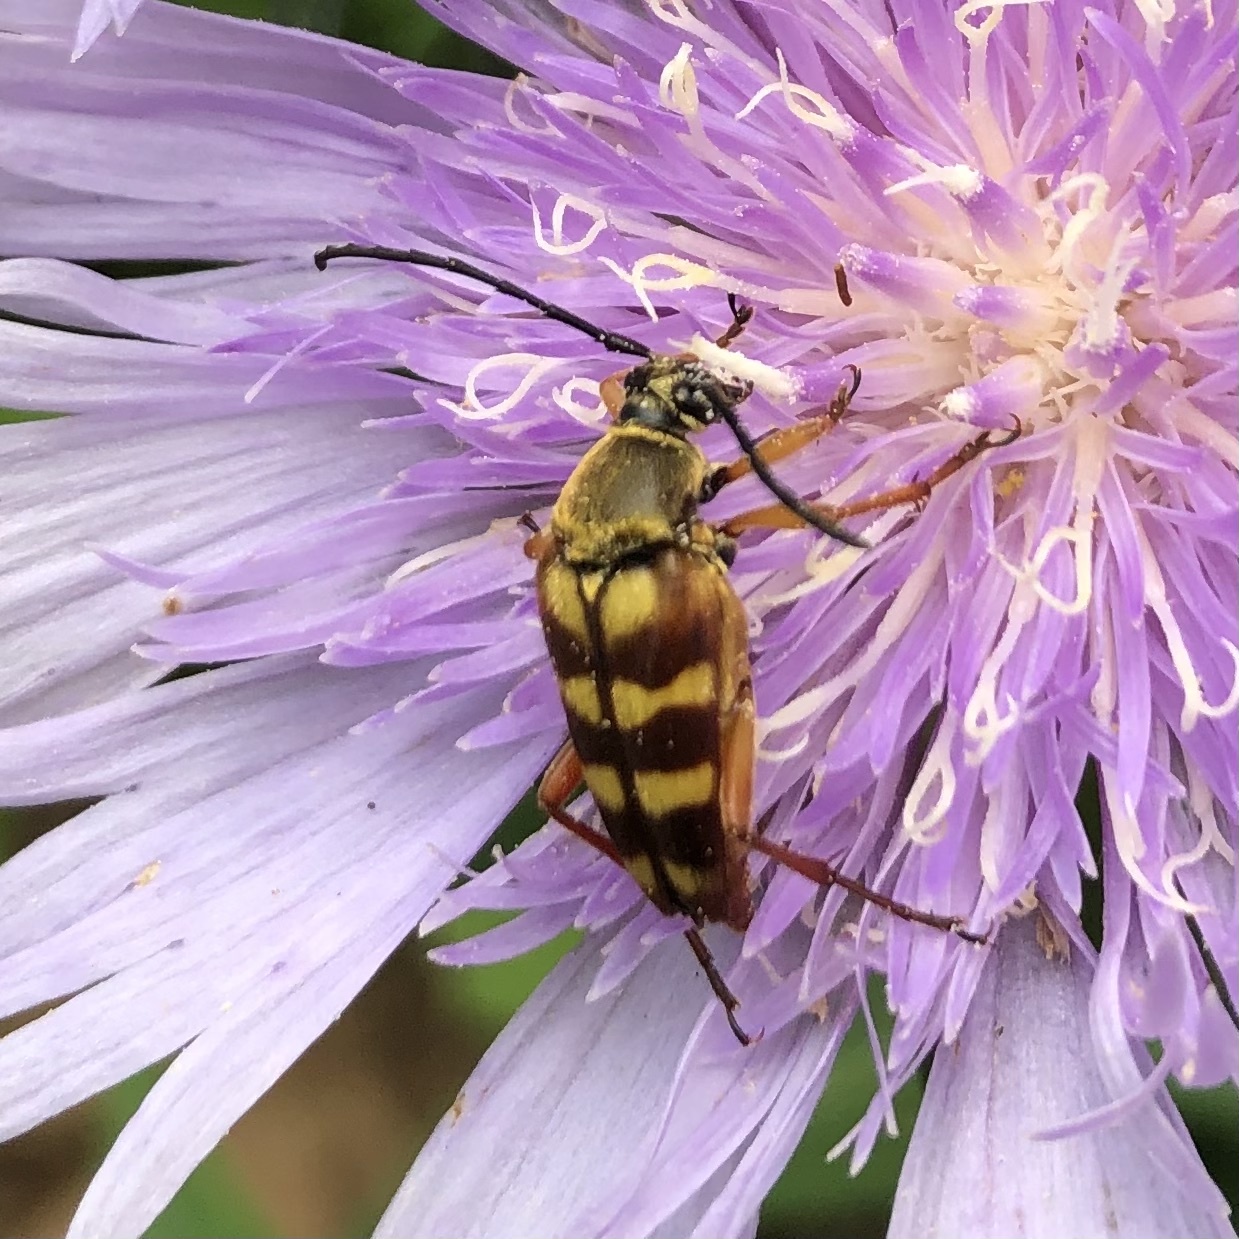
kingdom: Animalia
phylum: Arthropoda
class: Insecta
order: Coleoptera
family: Cerambycidae
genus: Typocerus
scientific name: Typocerus velutinus
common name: Banded longhorn beetle
